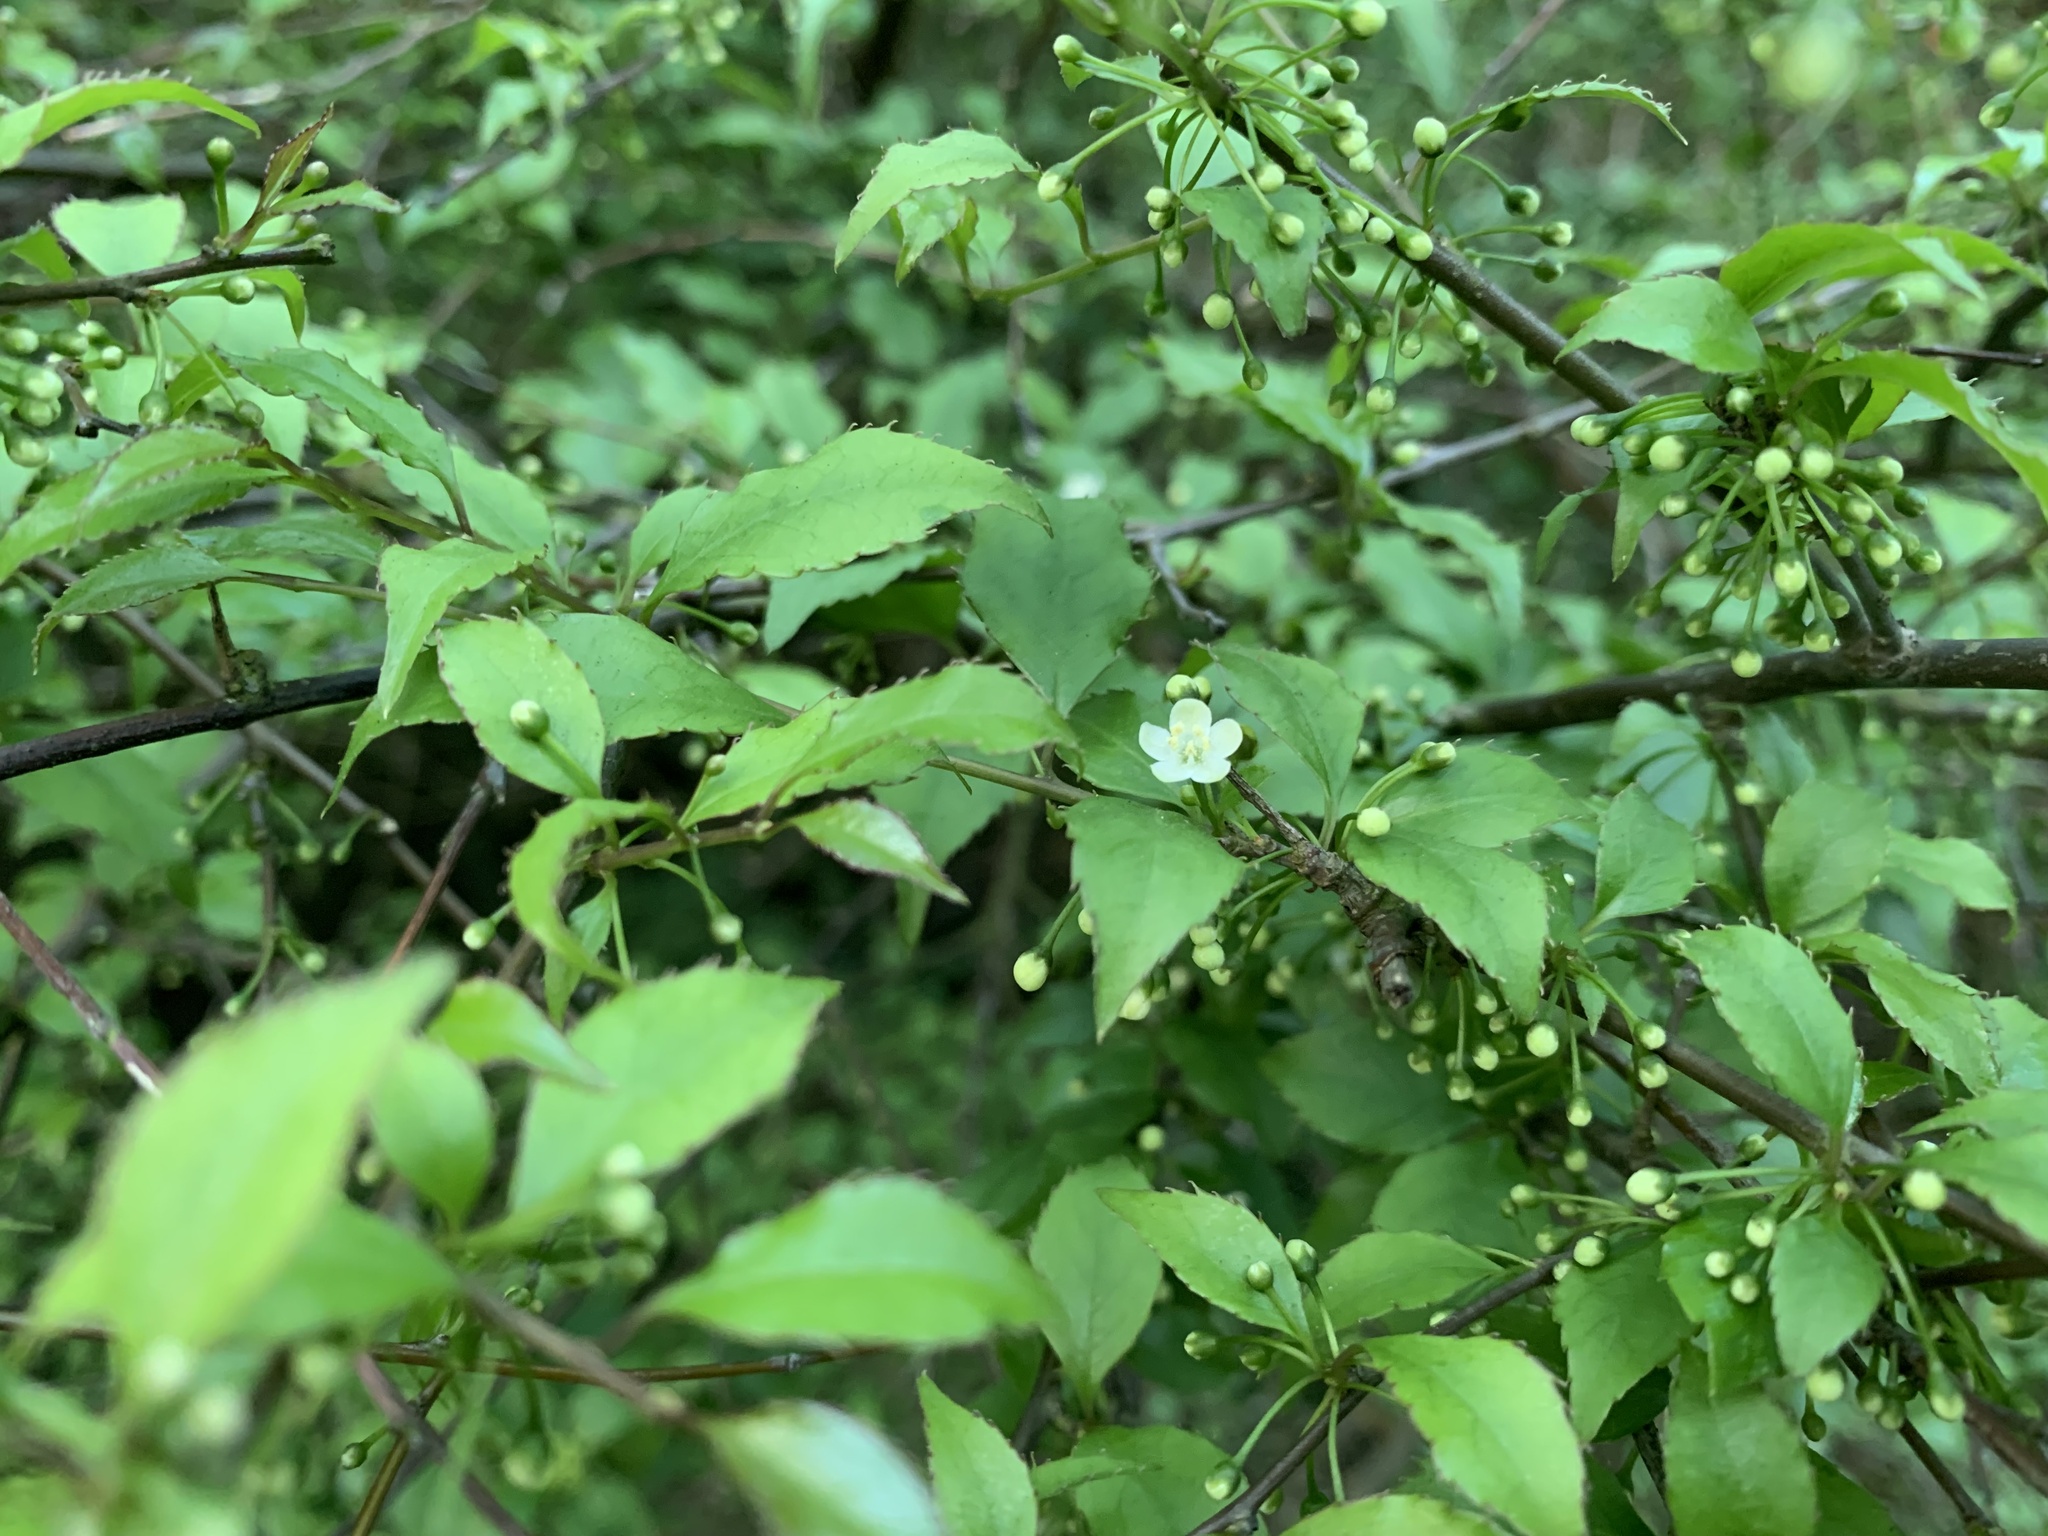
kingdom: Plantae
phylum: Tracheophyta
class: Magnoliopsida
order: Aquifoliales
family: Aquifoliaceae
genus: Ilex
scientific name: Ilex asprella
